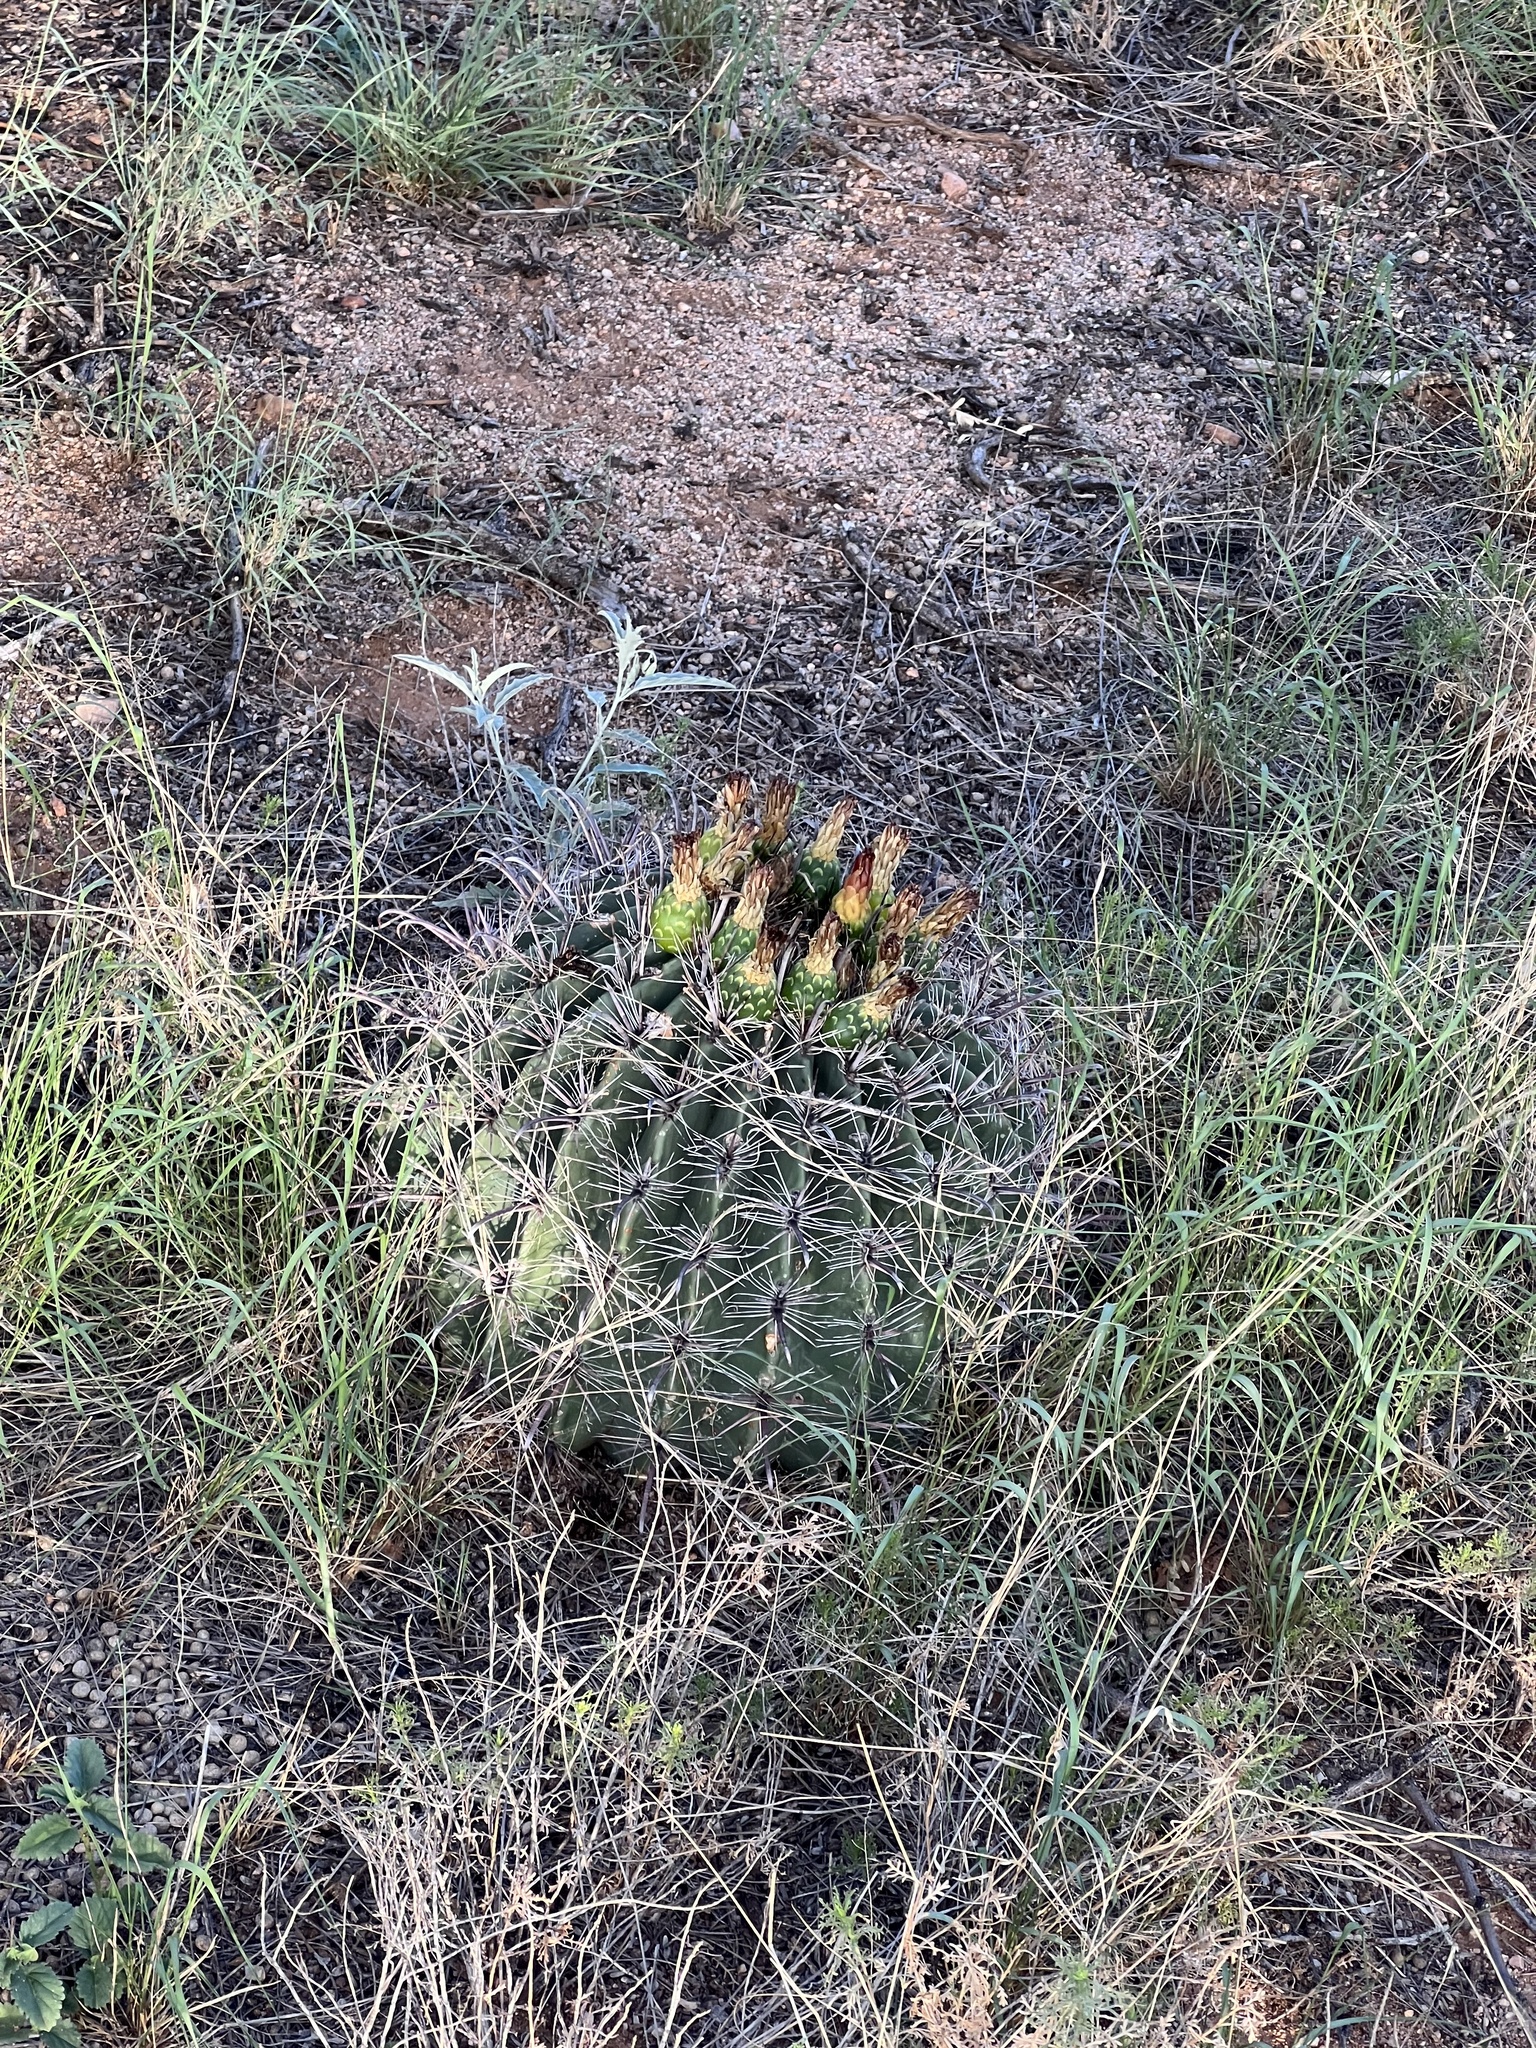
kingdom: Plantae
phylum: Tracheophyta
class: Magnoliopsida
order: Caryophyllales
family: Cactaceae
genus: Ferocactus
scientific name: Ferocactus wislizeni
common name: Candy barrel cactus
